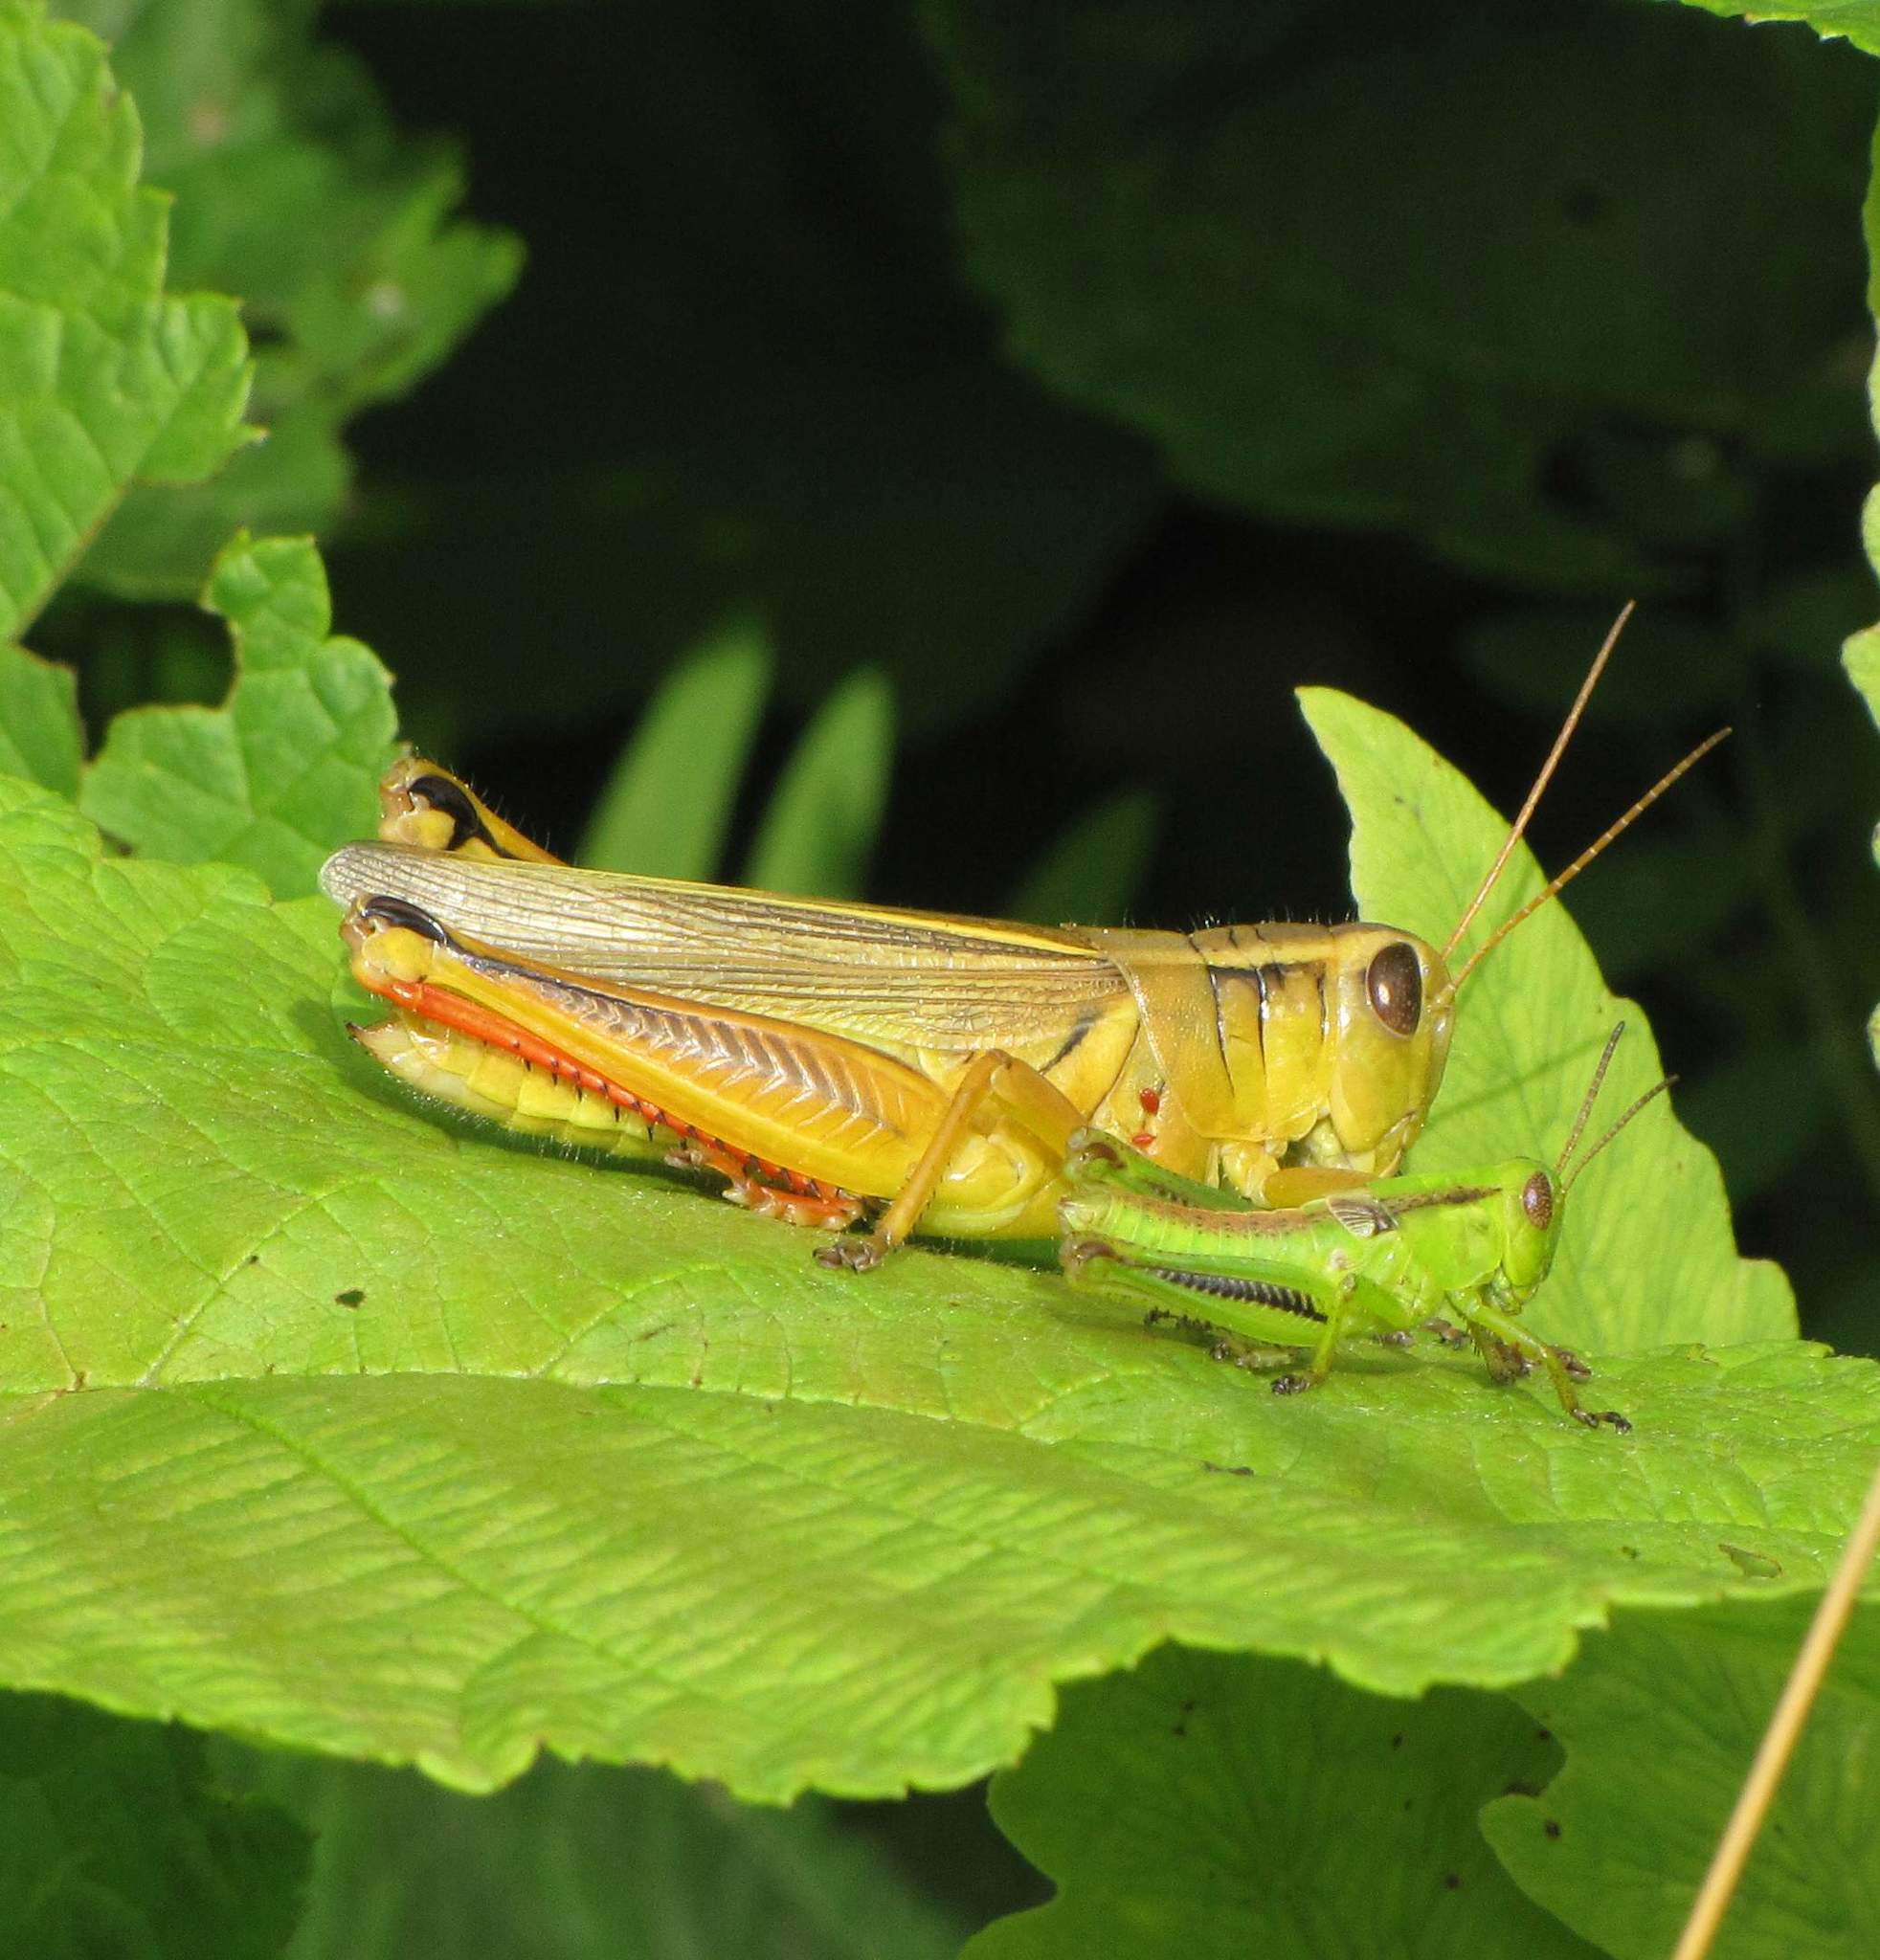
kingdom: Animalia
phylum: Arthropoda
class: Insecta
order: Orthoptera
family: Acrididae
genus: Melanoplus
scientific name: Melanoplus bivittatus
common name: Two-striped grasshopper
